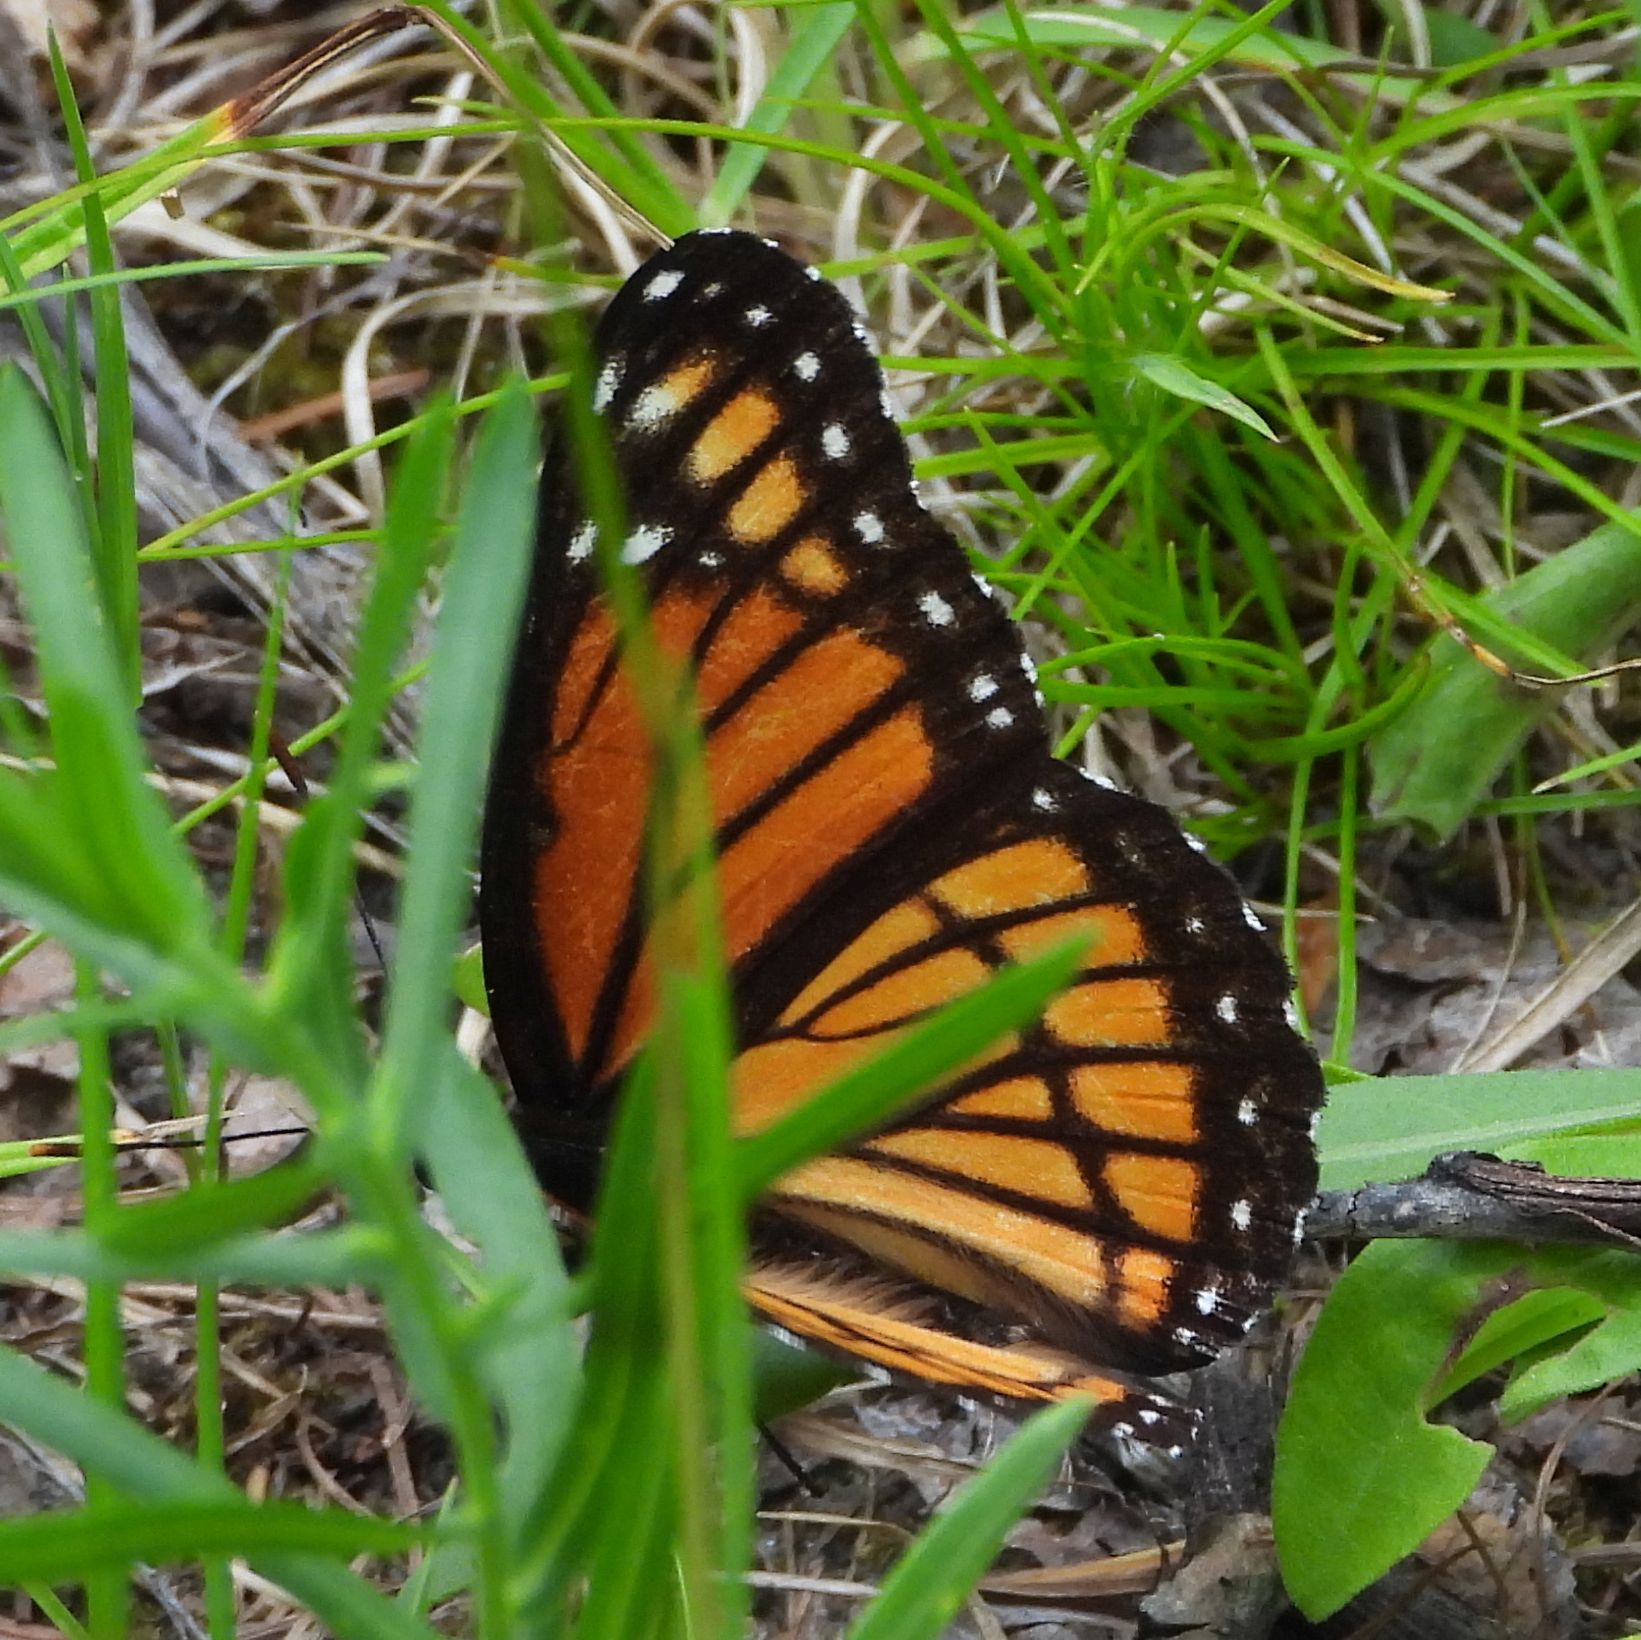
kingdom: Animalia
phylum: Arthropoda
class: Insecta
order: Lepidoptera
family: Nymphalidae
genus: Limenitis
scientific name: Limenitis archippus
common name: Viceroy
